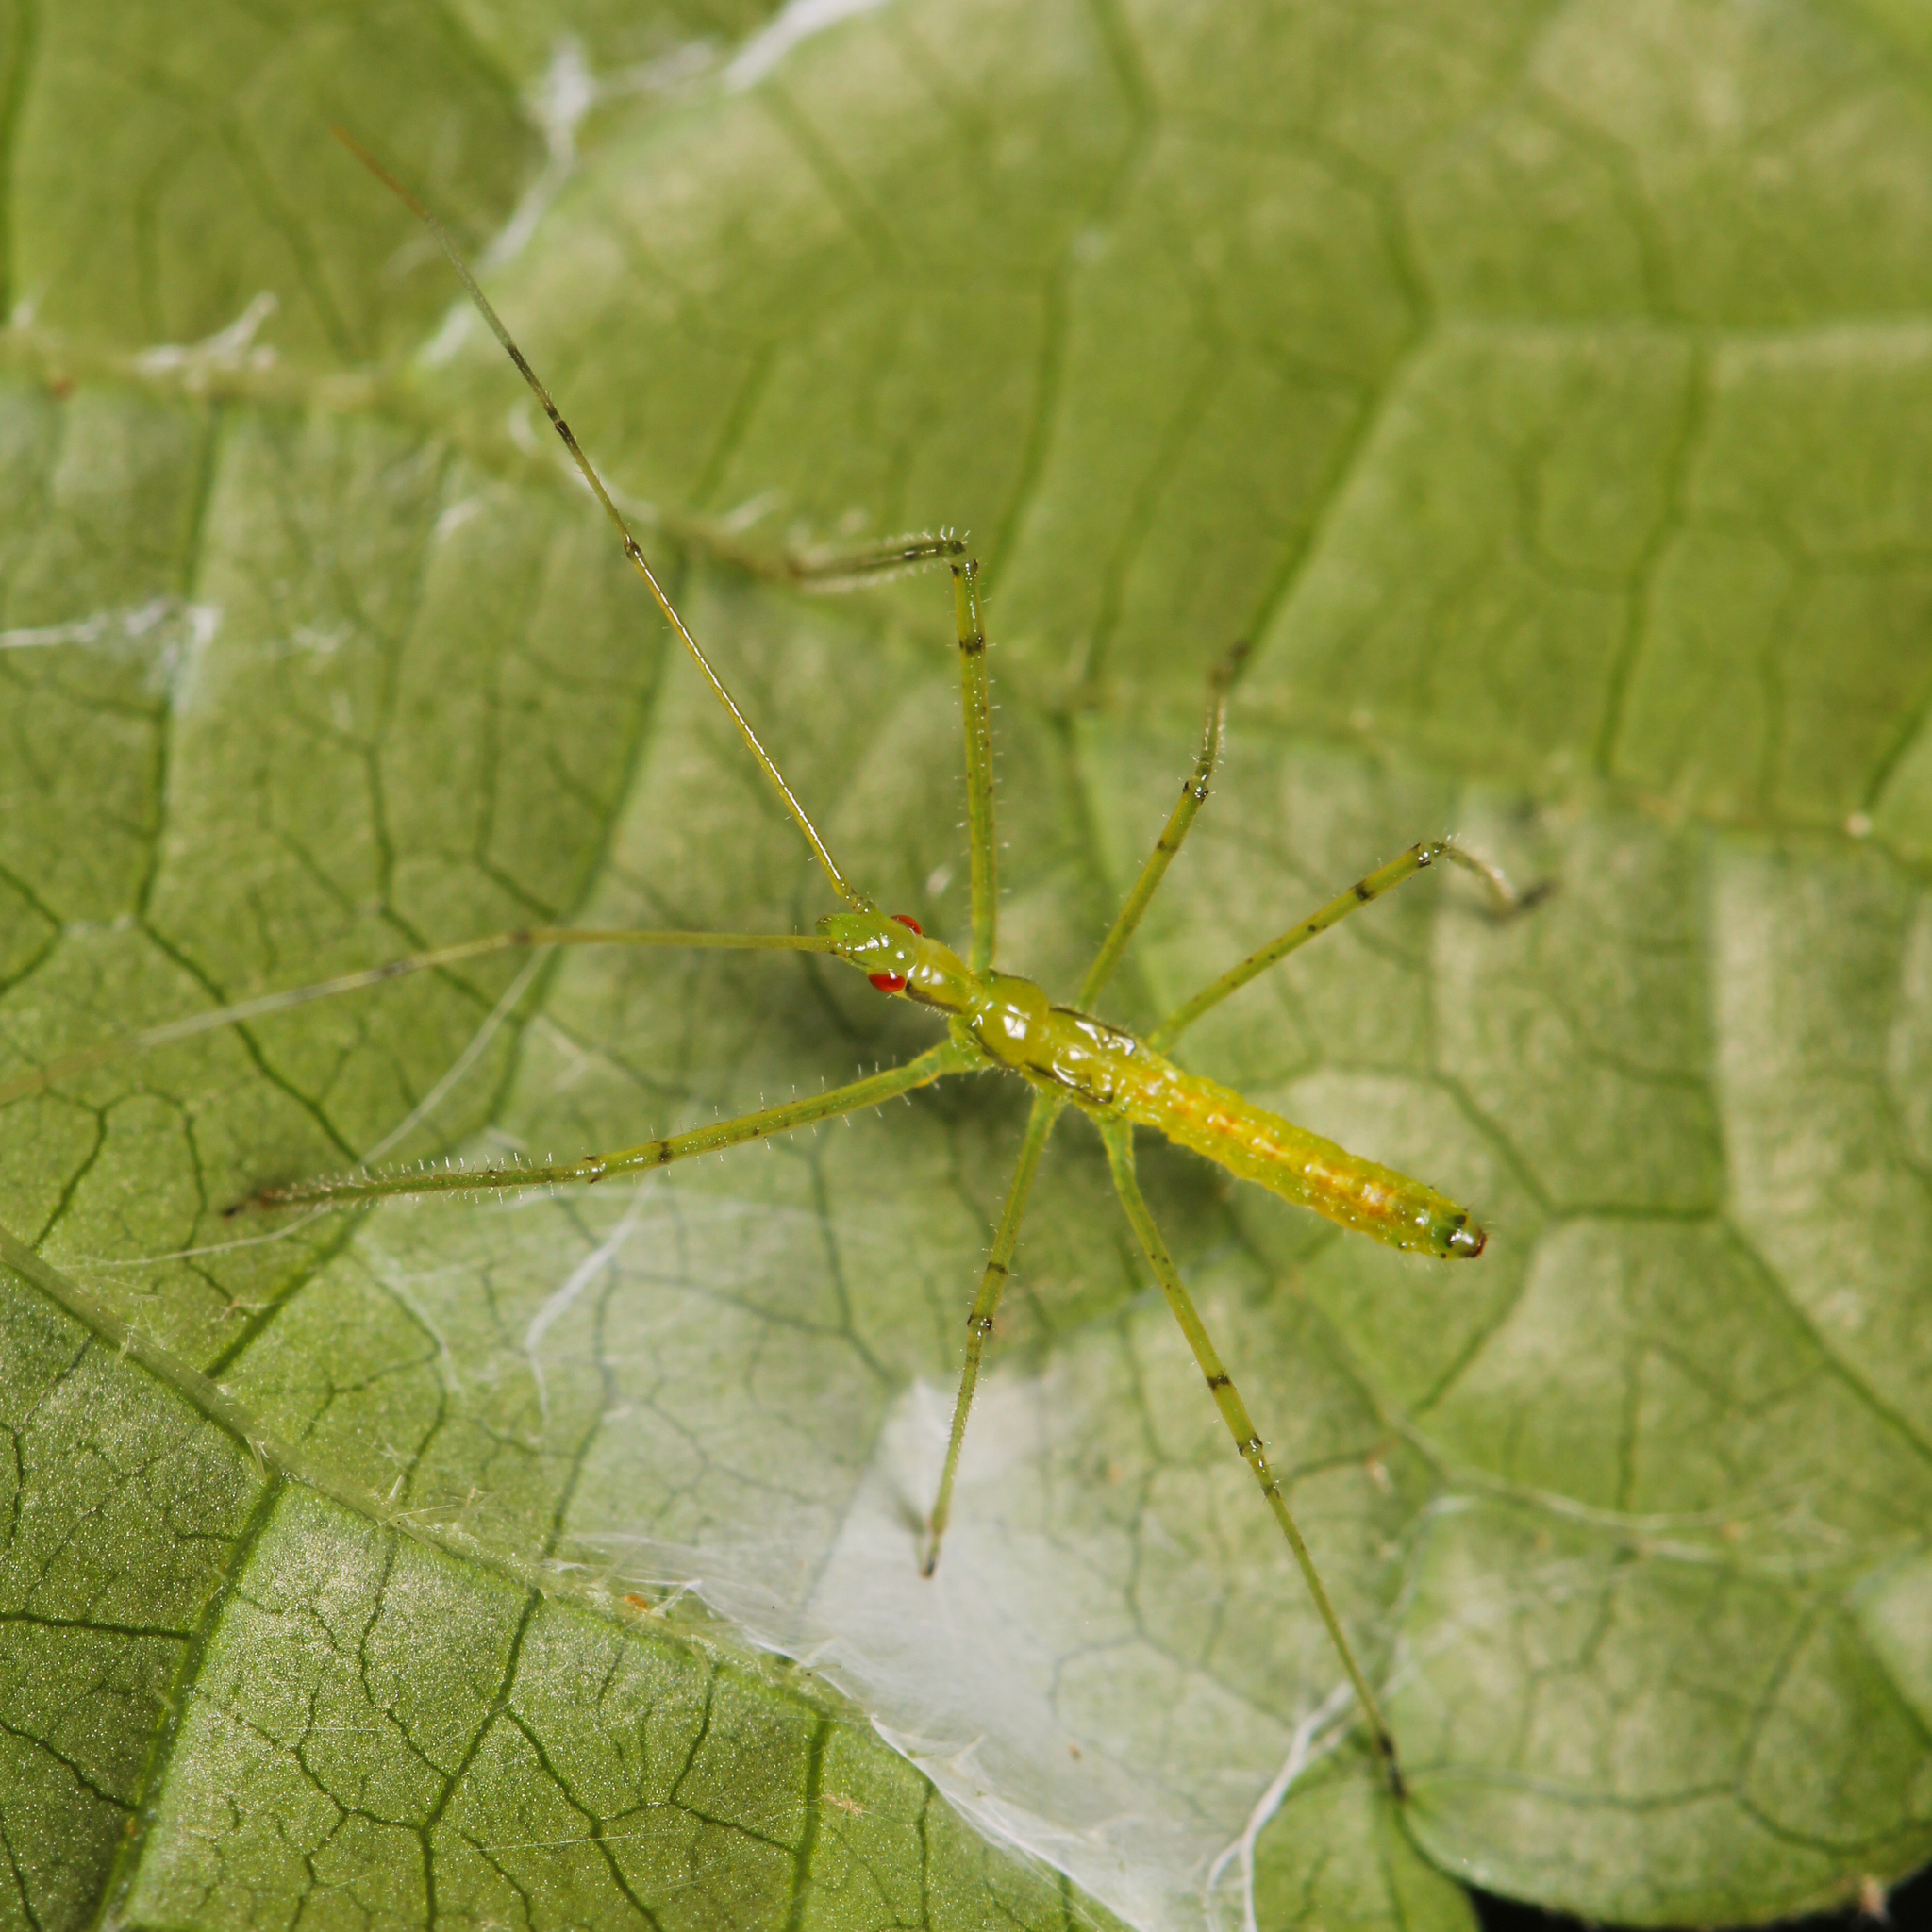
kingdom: Animalia
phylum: Arthropoda
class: Insecta
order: Hemiptera
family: Reduviidae
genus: Zelus
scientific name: Zelus luridus
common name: Pale green assassin bug
